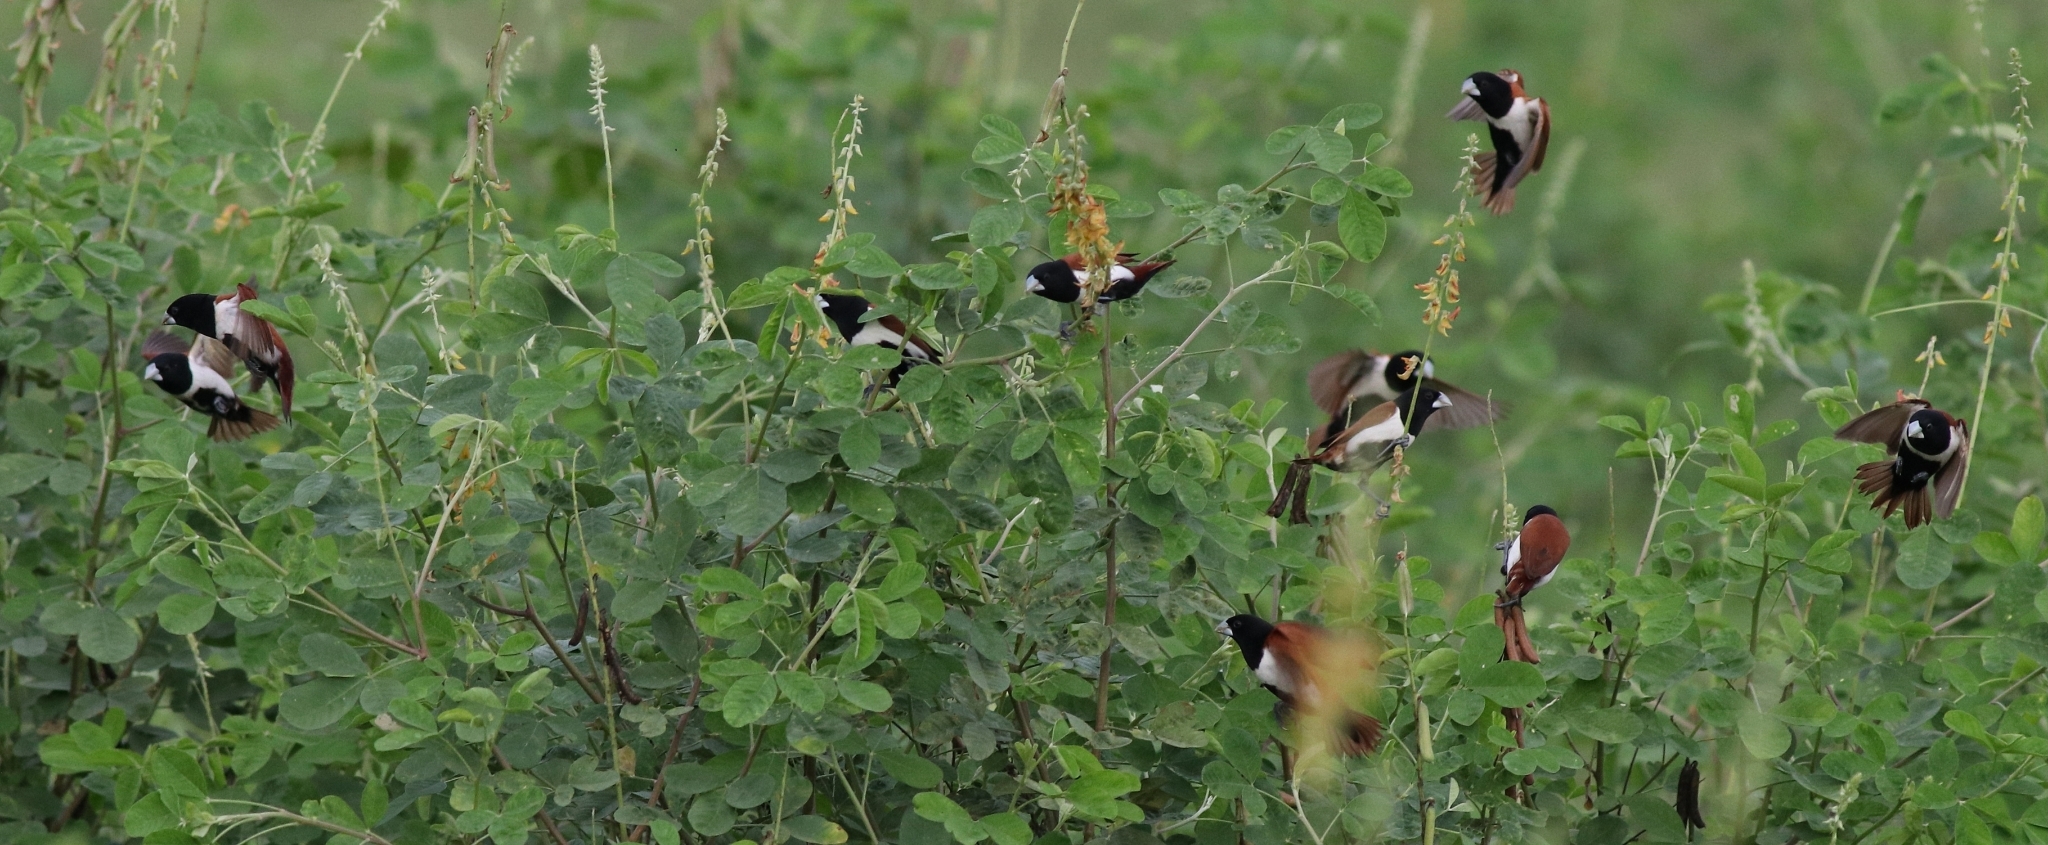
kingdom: Animalia
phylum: Chordata
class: Aves
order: Passeriformes
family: Estrildidae
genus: Lonchura
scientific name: Lonchura malacca
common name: Tricolored munia
